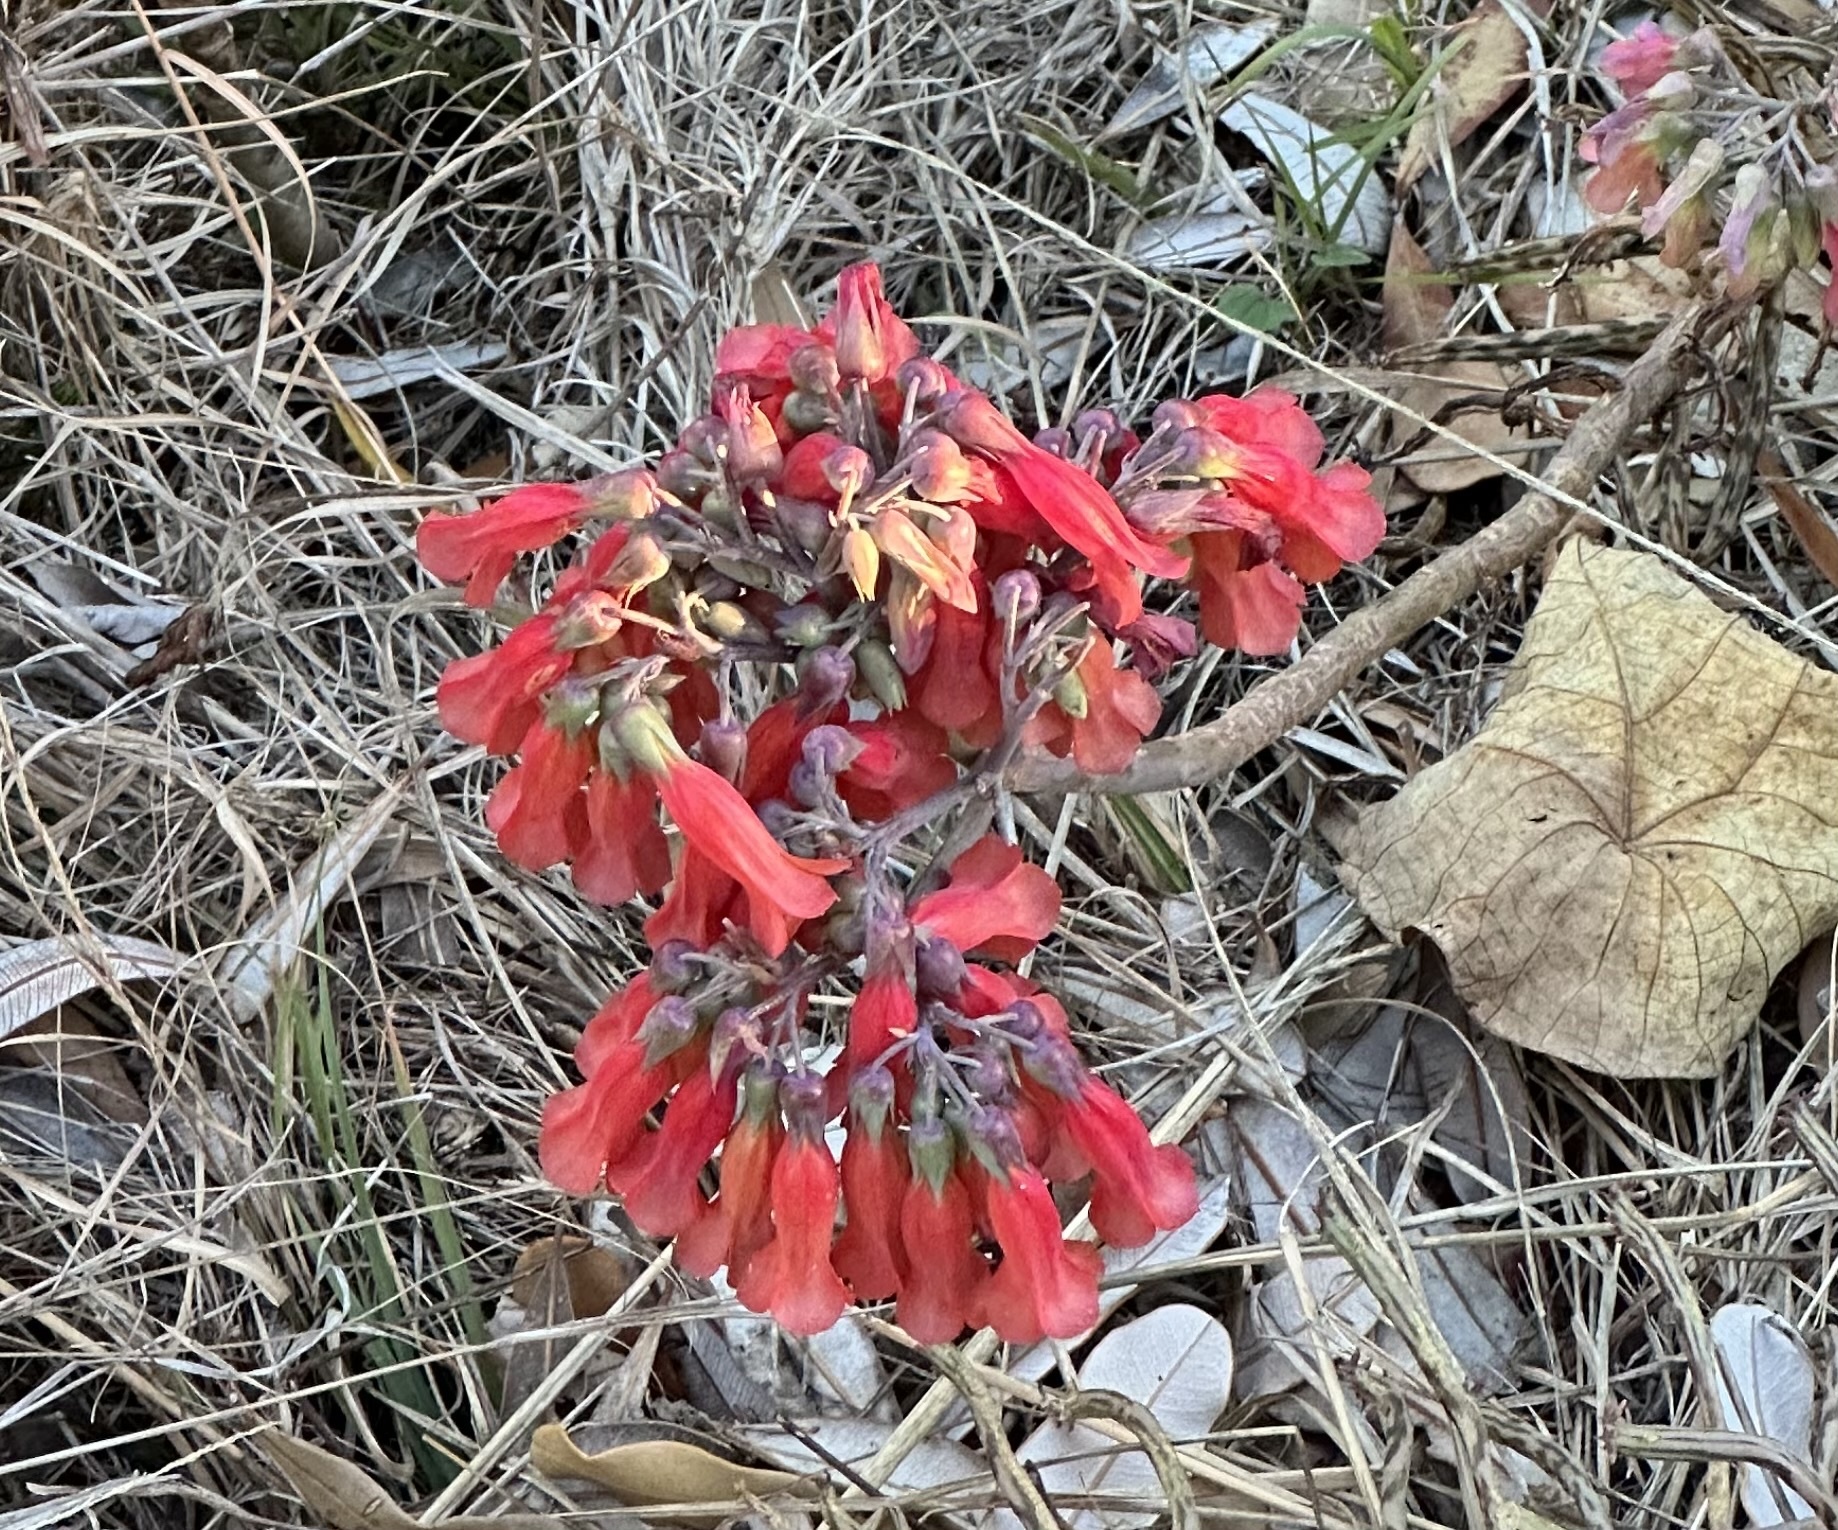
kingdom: Plantae
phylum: Tracheophyta
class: Magnoliopsida
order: Saxifragales
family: Crassulaceae
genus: Kalanchoe
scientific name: Kalanchoe delagoensis
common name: Chandelier plant
